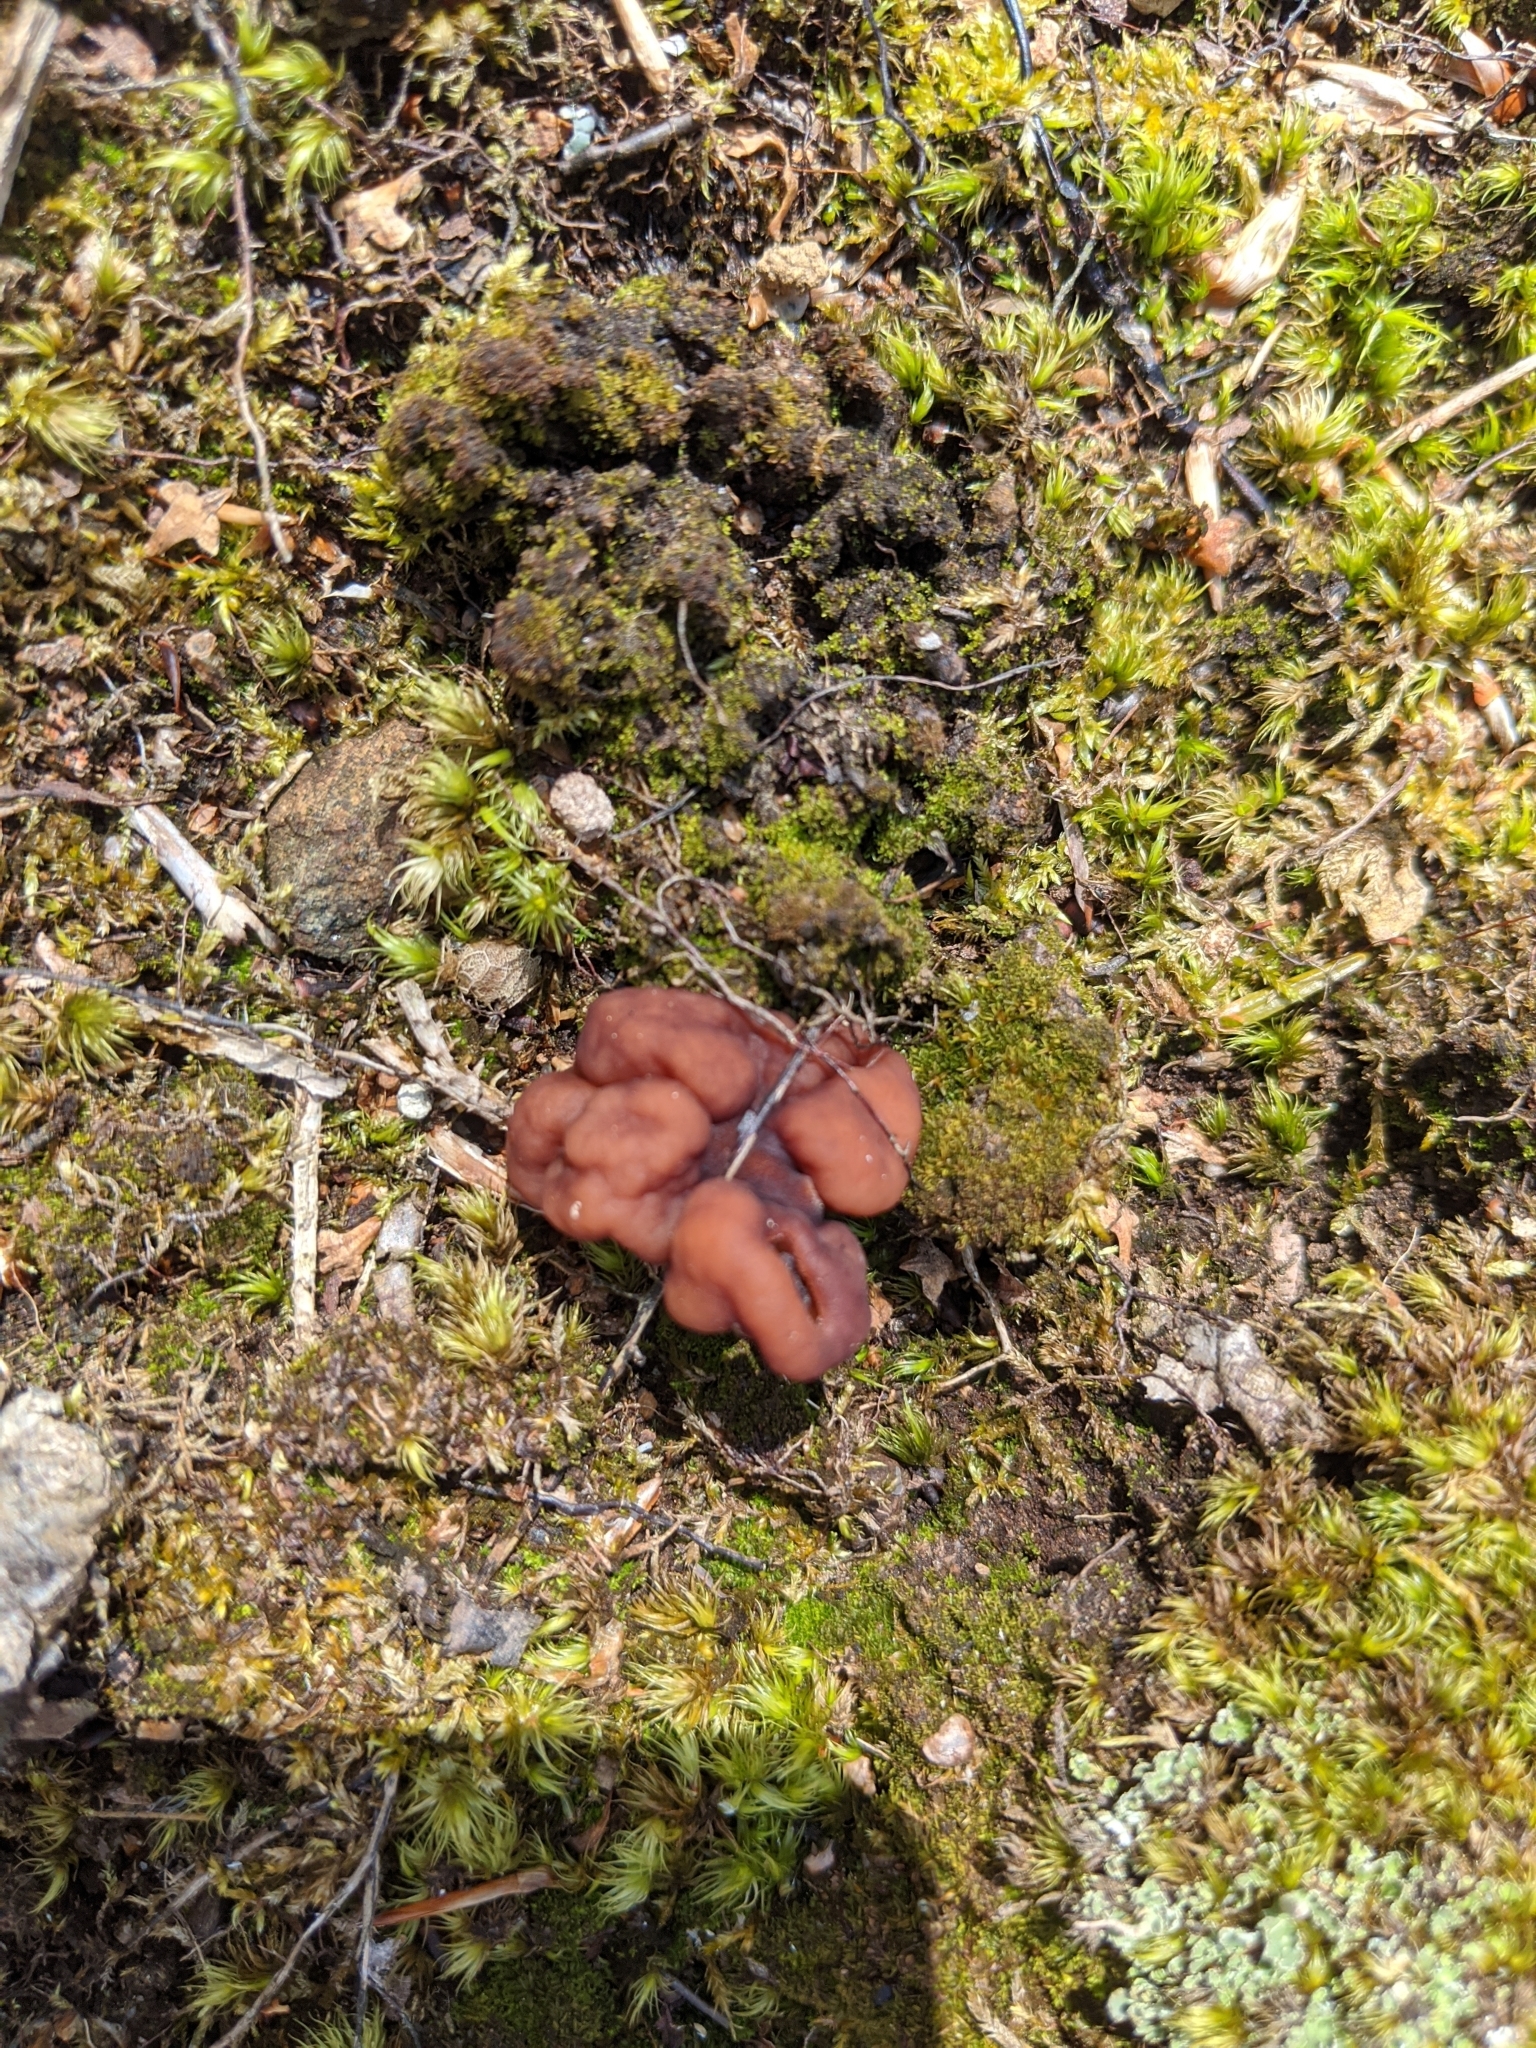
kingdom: Fungi
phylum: Ascomycota
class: Pezizomycetes
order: Pezizales
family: Discinaceae
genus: Gyromitra
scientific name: Gyromitra esculenta
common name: False morel
